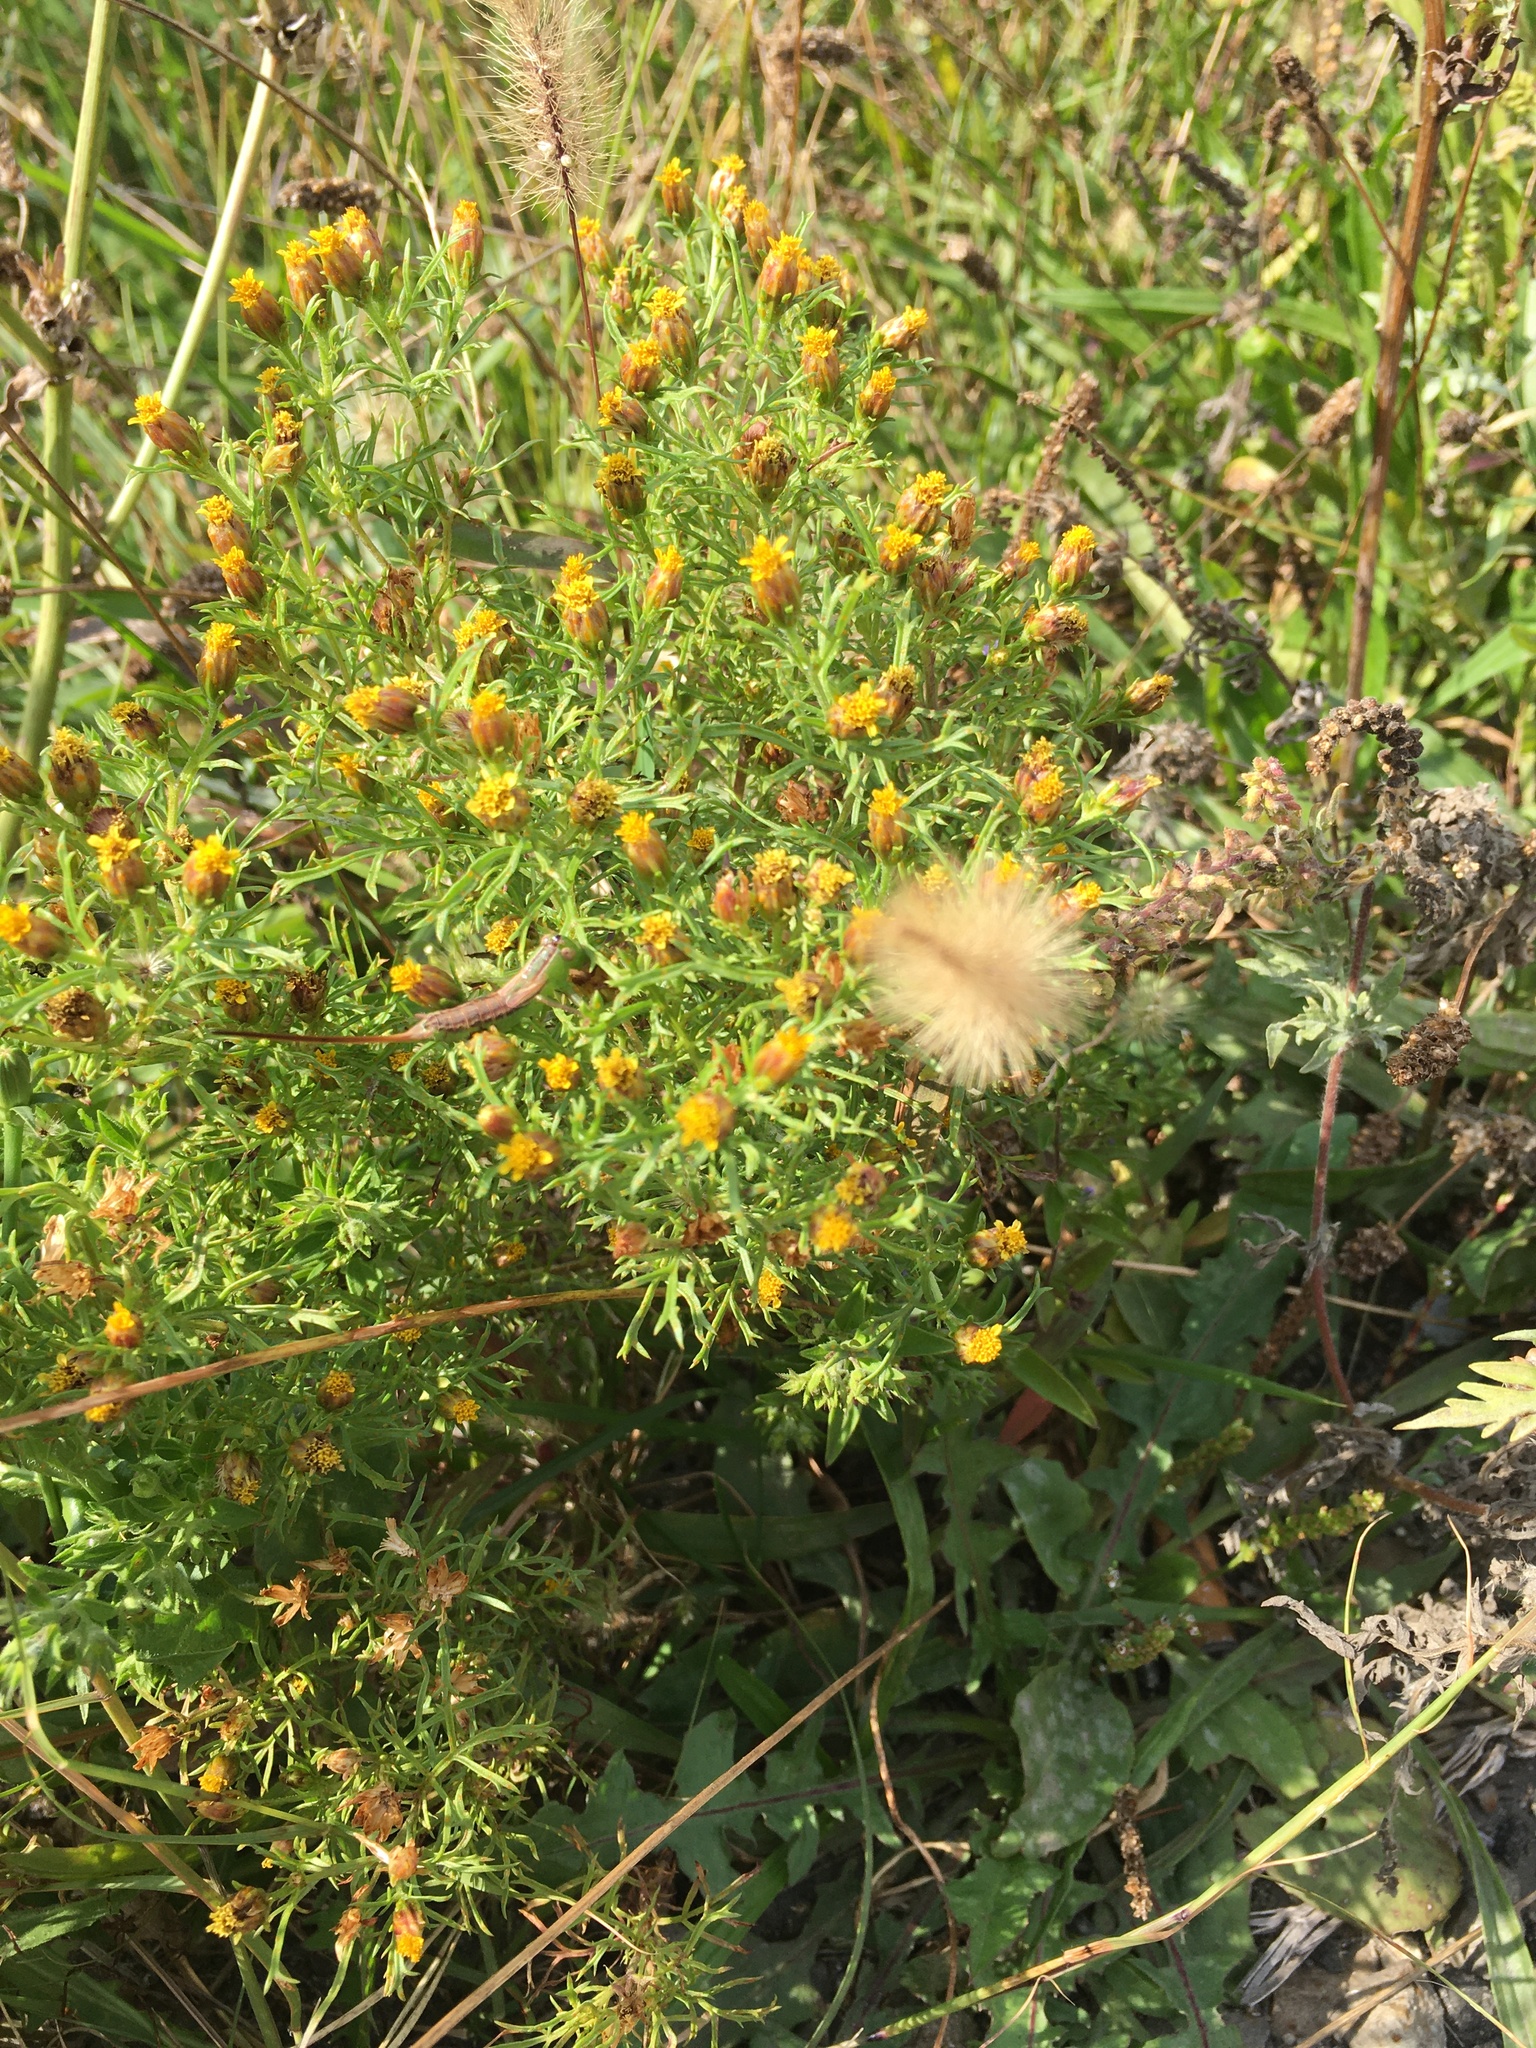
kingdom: Plantae
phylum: Tracheophyta
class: Magnoliopsida
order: Asterales
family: Asteraceae
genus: Dyssodia
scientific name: Dyssodia papposa
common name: Dogweed
